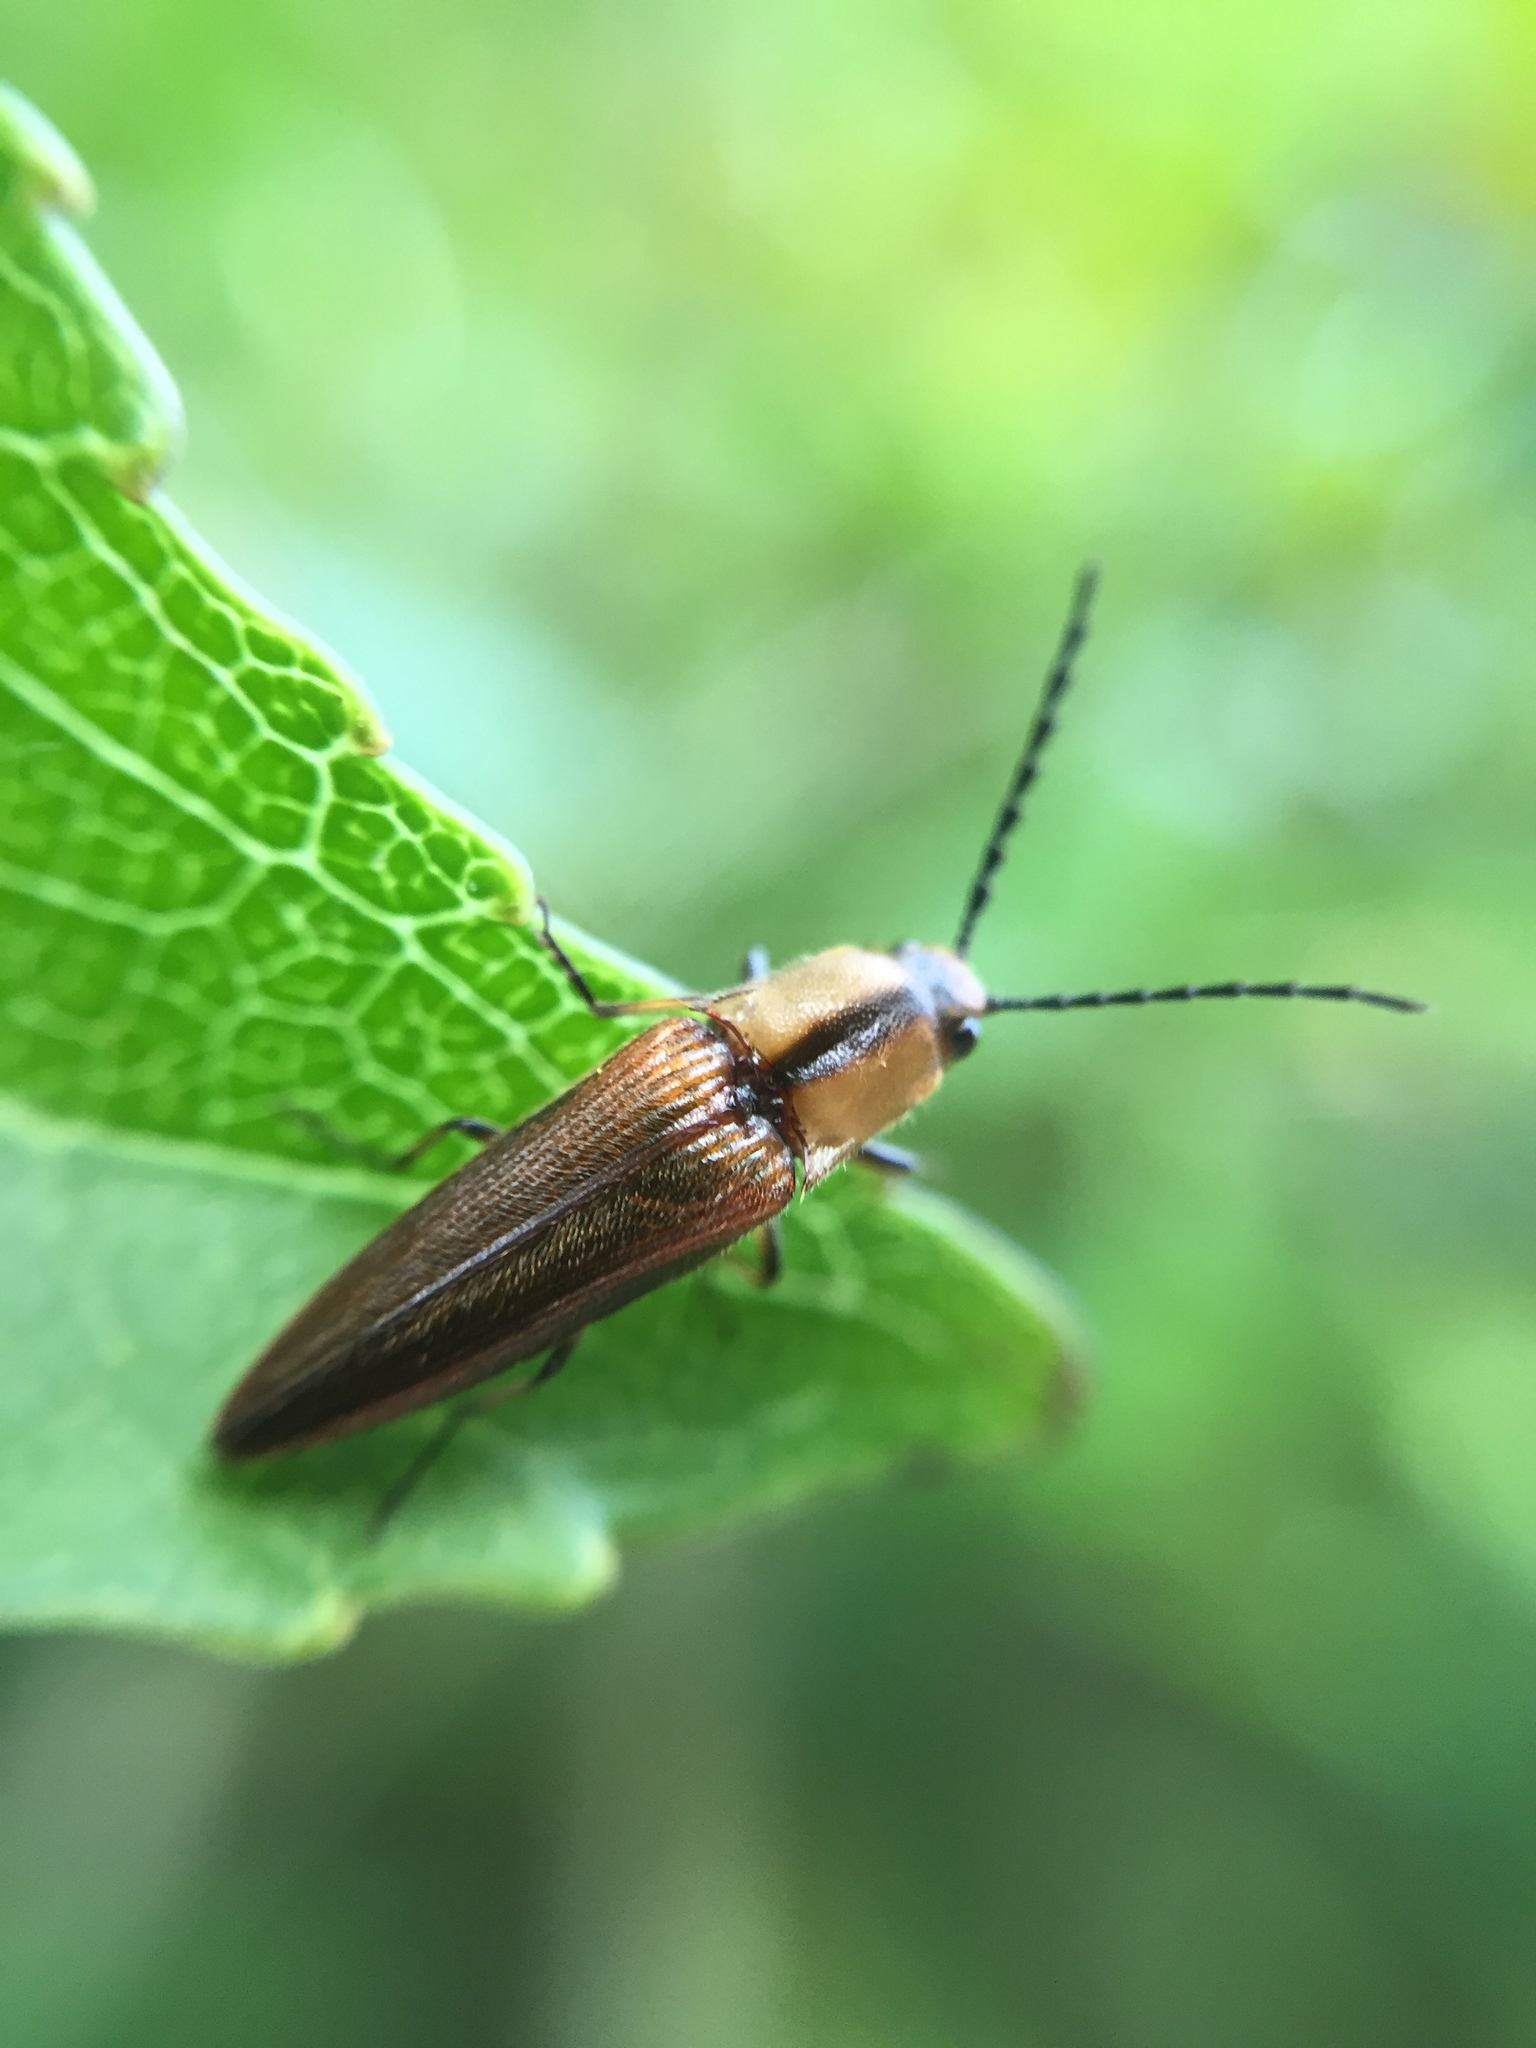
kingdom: Animalia
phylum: Arthropoda
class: Insecta
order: Coleoptera
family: Elateridae
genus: Sphaenelater
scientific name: Sphaenelater
